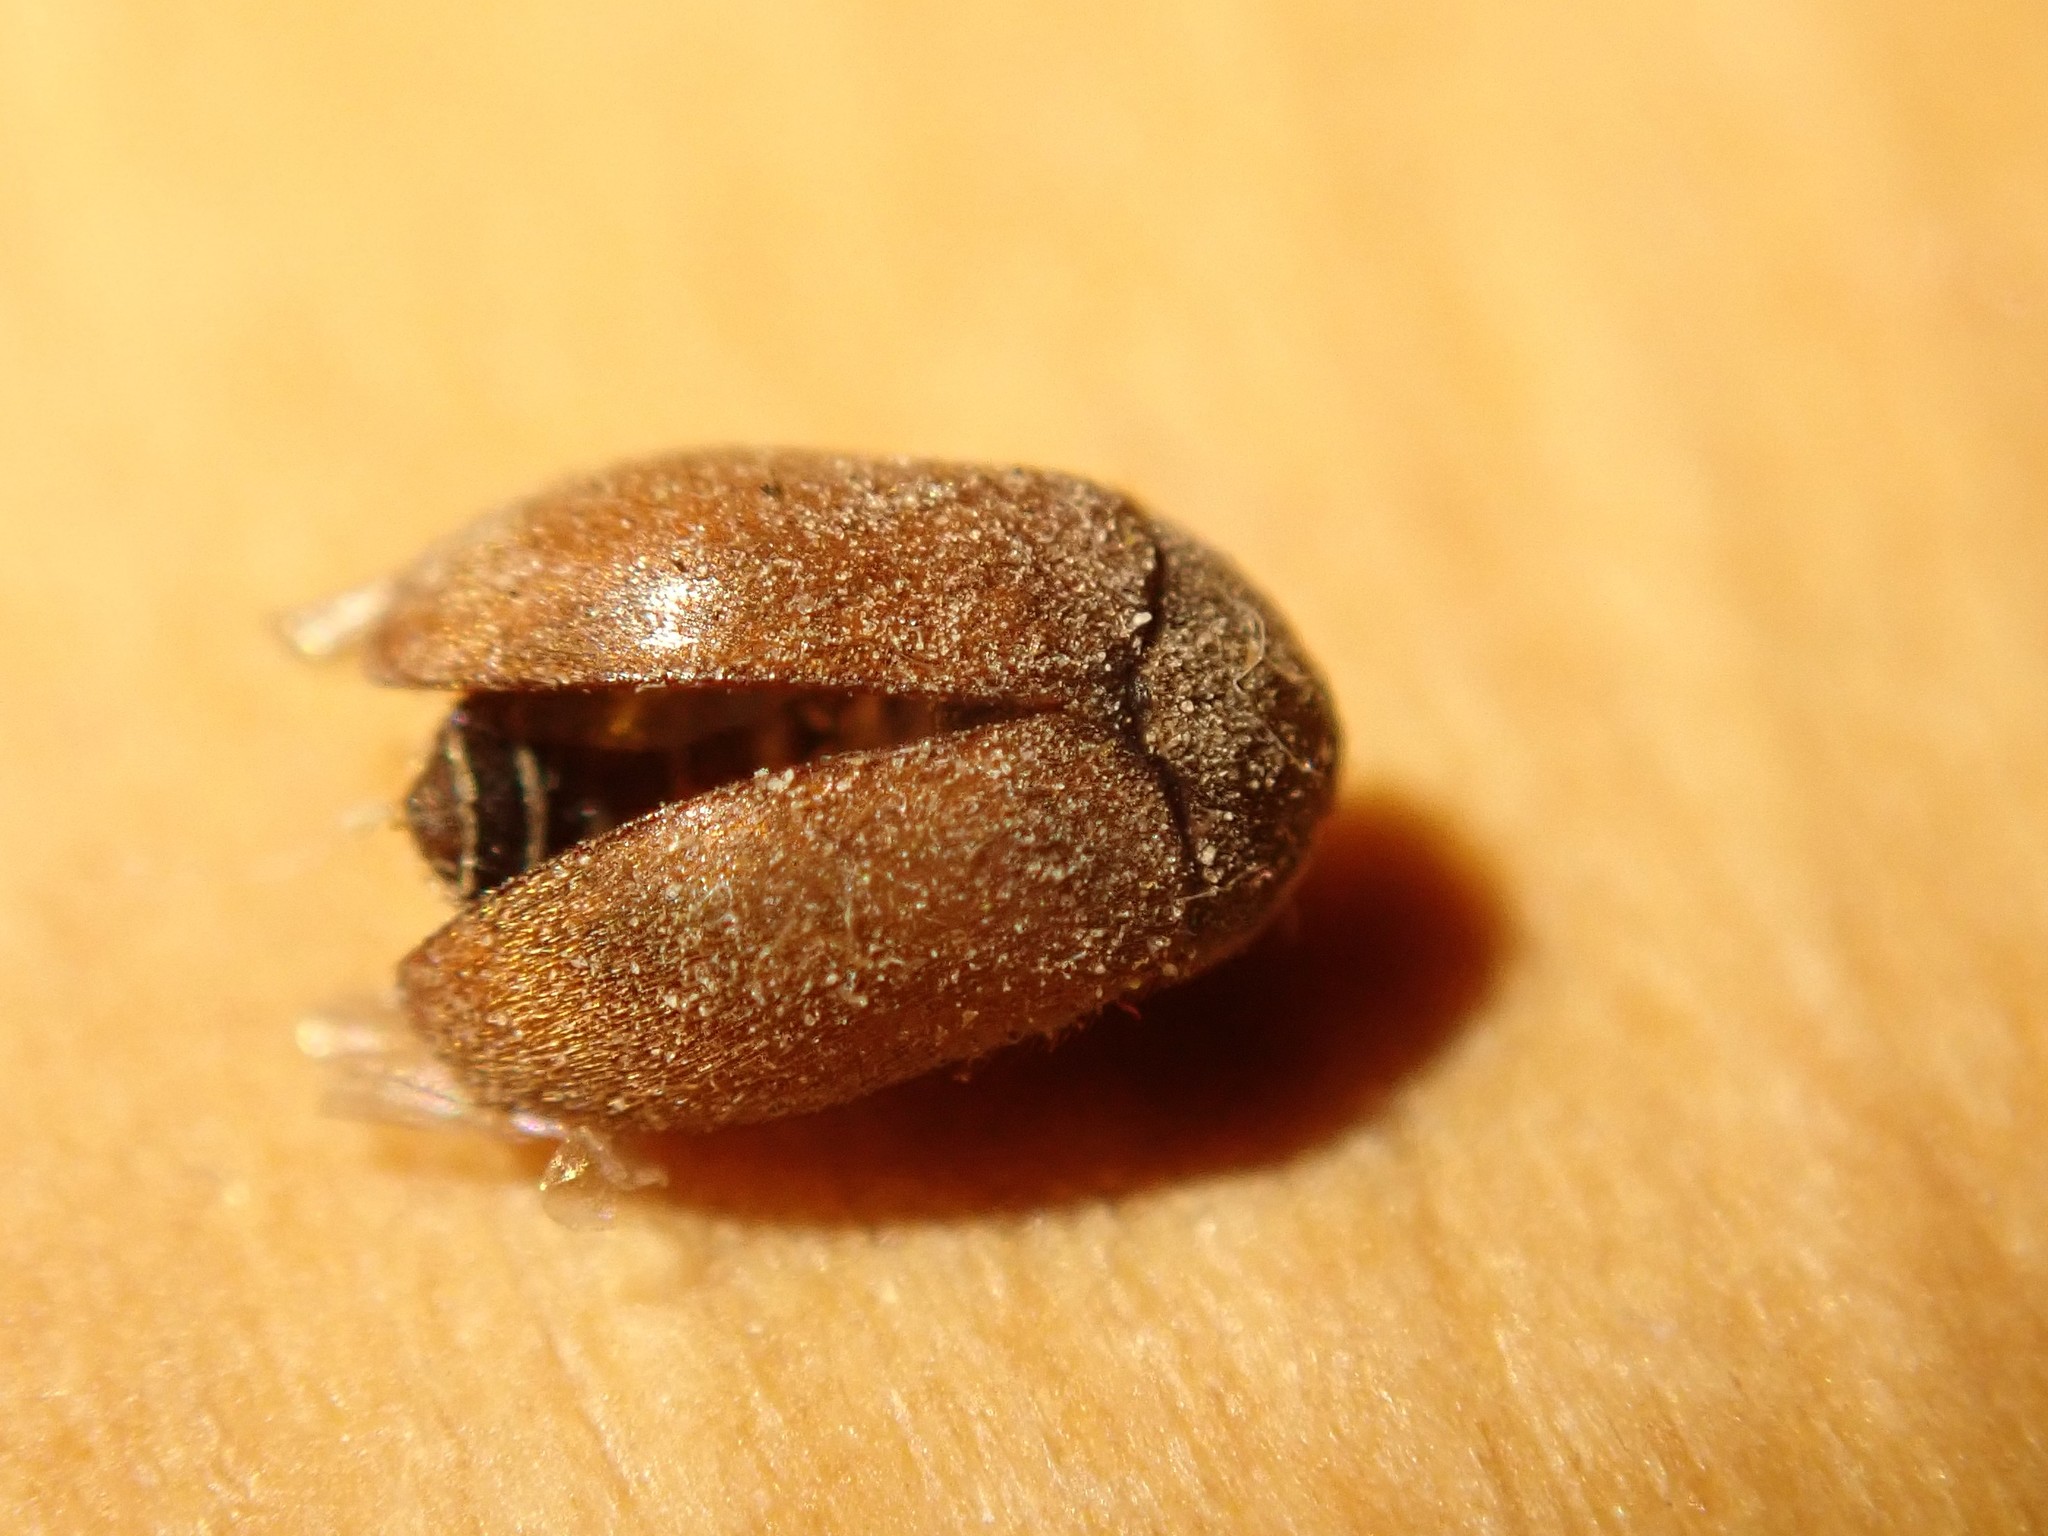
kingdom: Animalia
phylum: Arthropoda
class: Insecta
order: Coleoptera
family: Dermestidae
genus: Attagenus
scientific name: Attagenus smirnovi
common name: Brown carpet beetle
